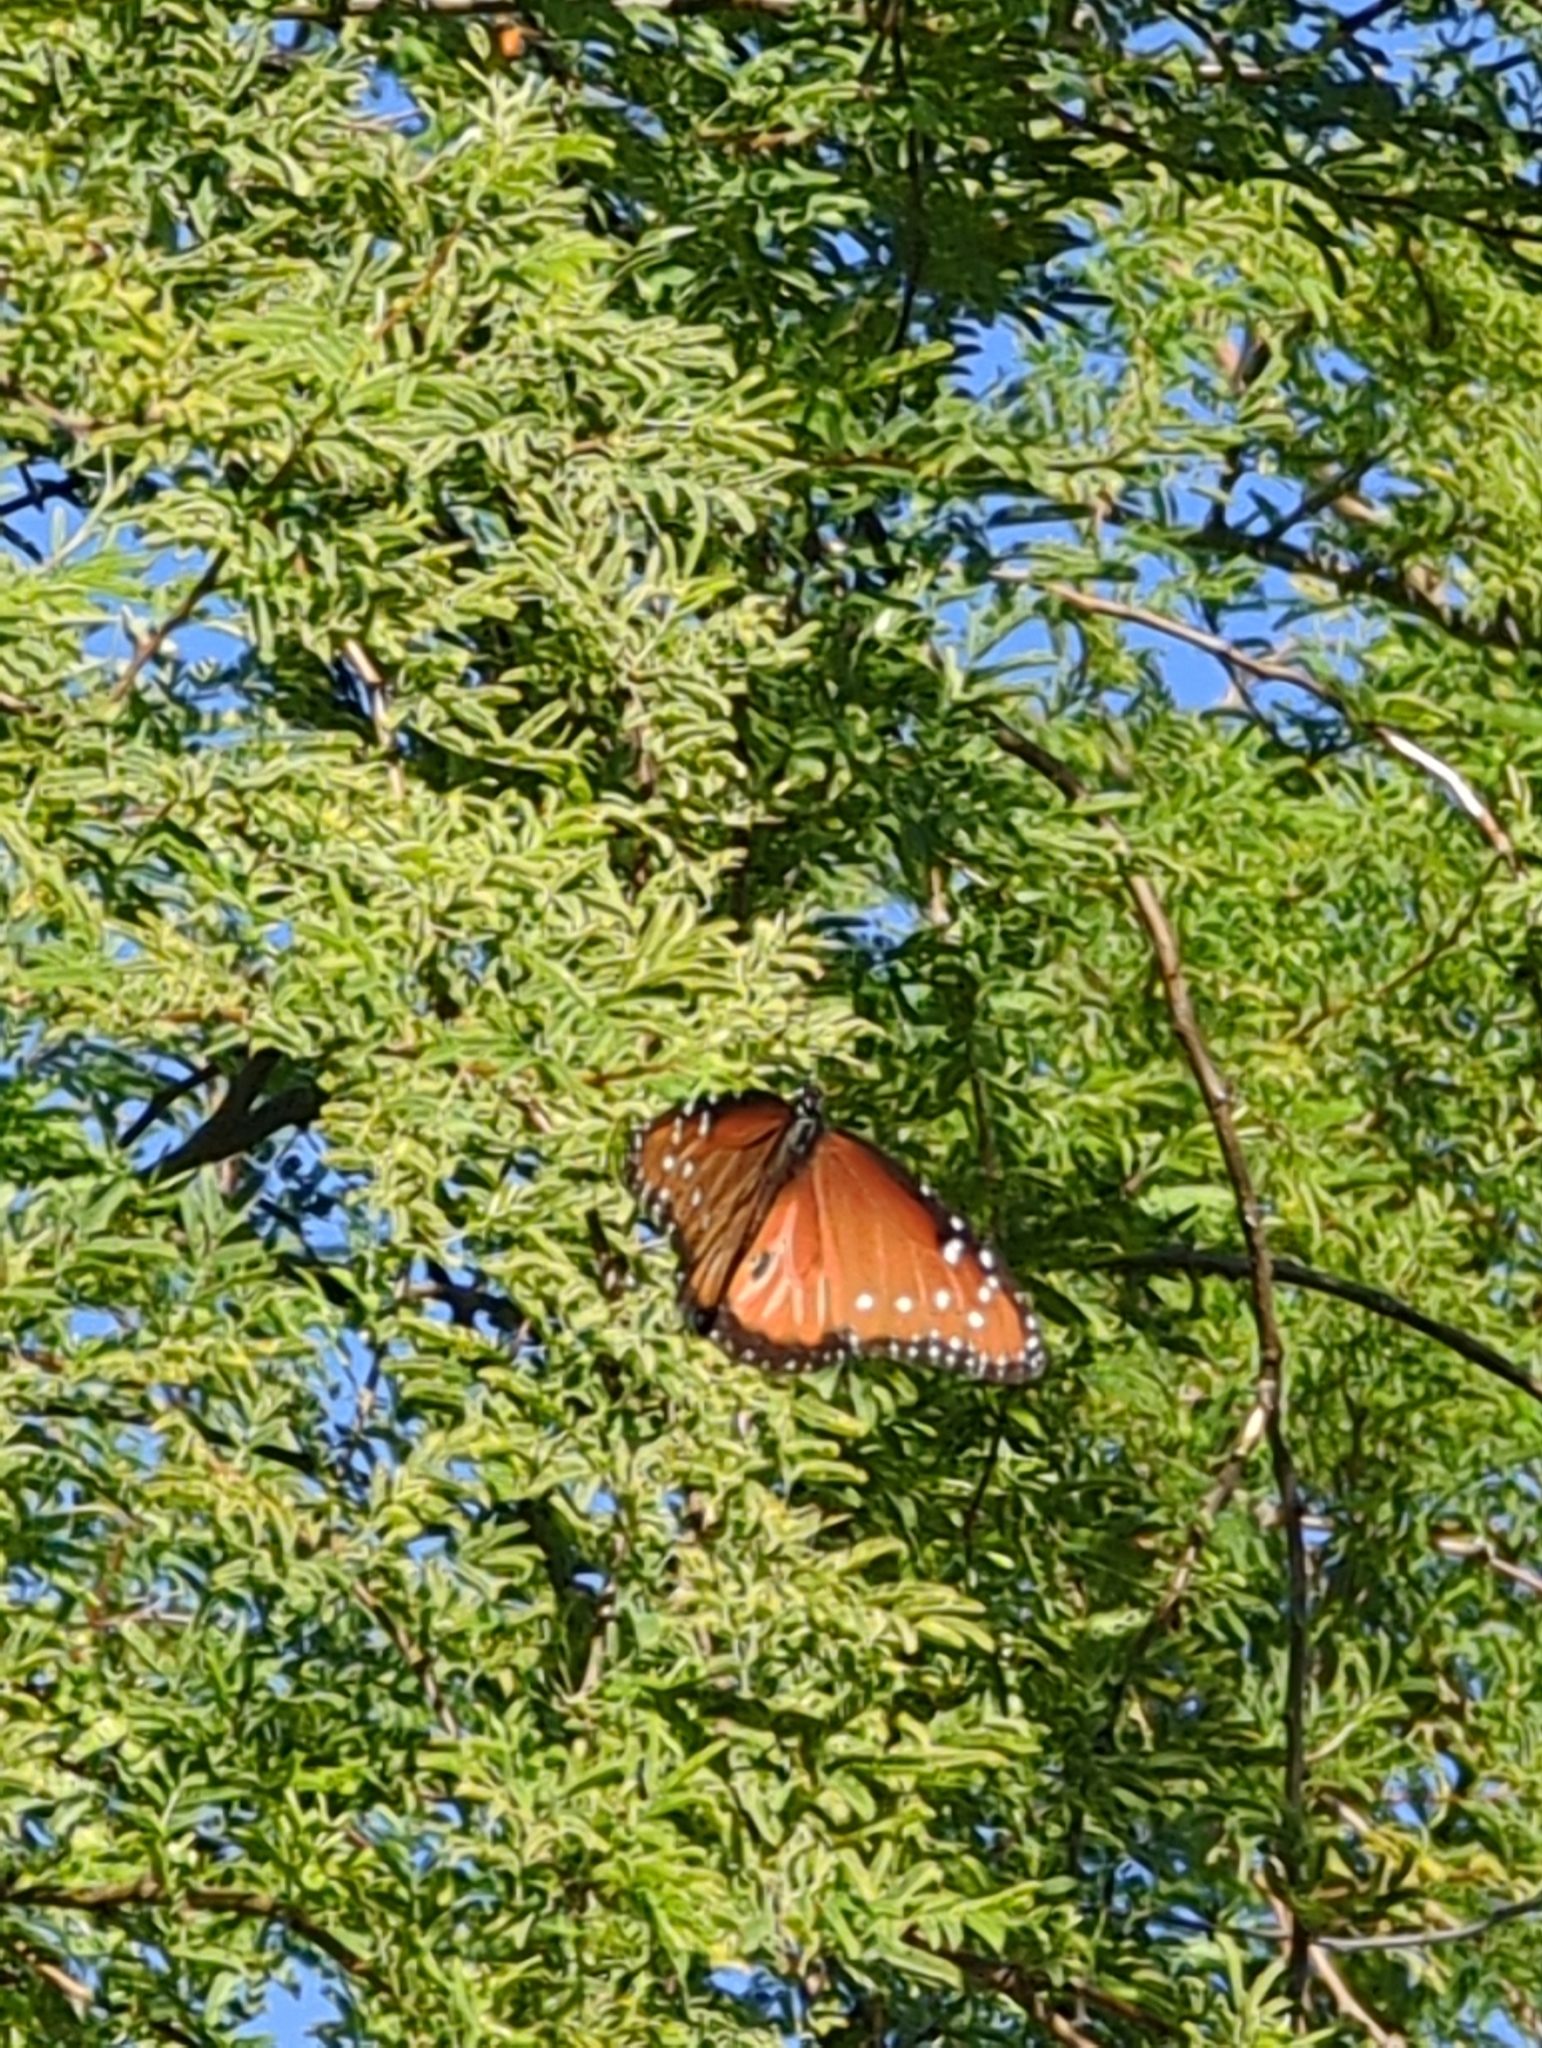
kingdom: Animalia
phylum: Arthropoda
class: Insecta
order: Lepidoptera
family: Nymphalidae
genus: Danaus
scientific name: Danaus gilippus
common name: Queen
